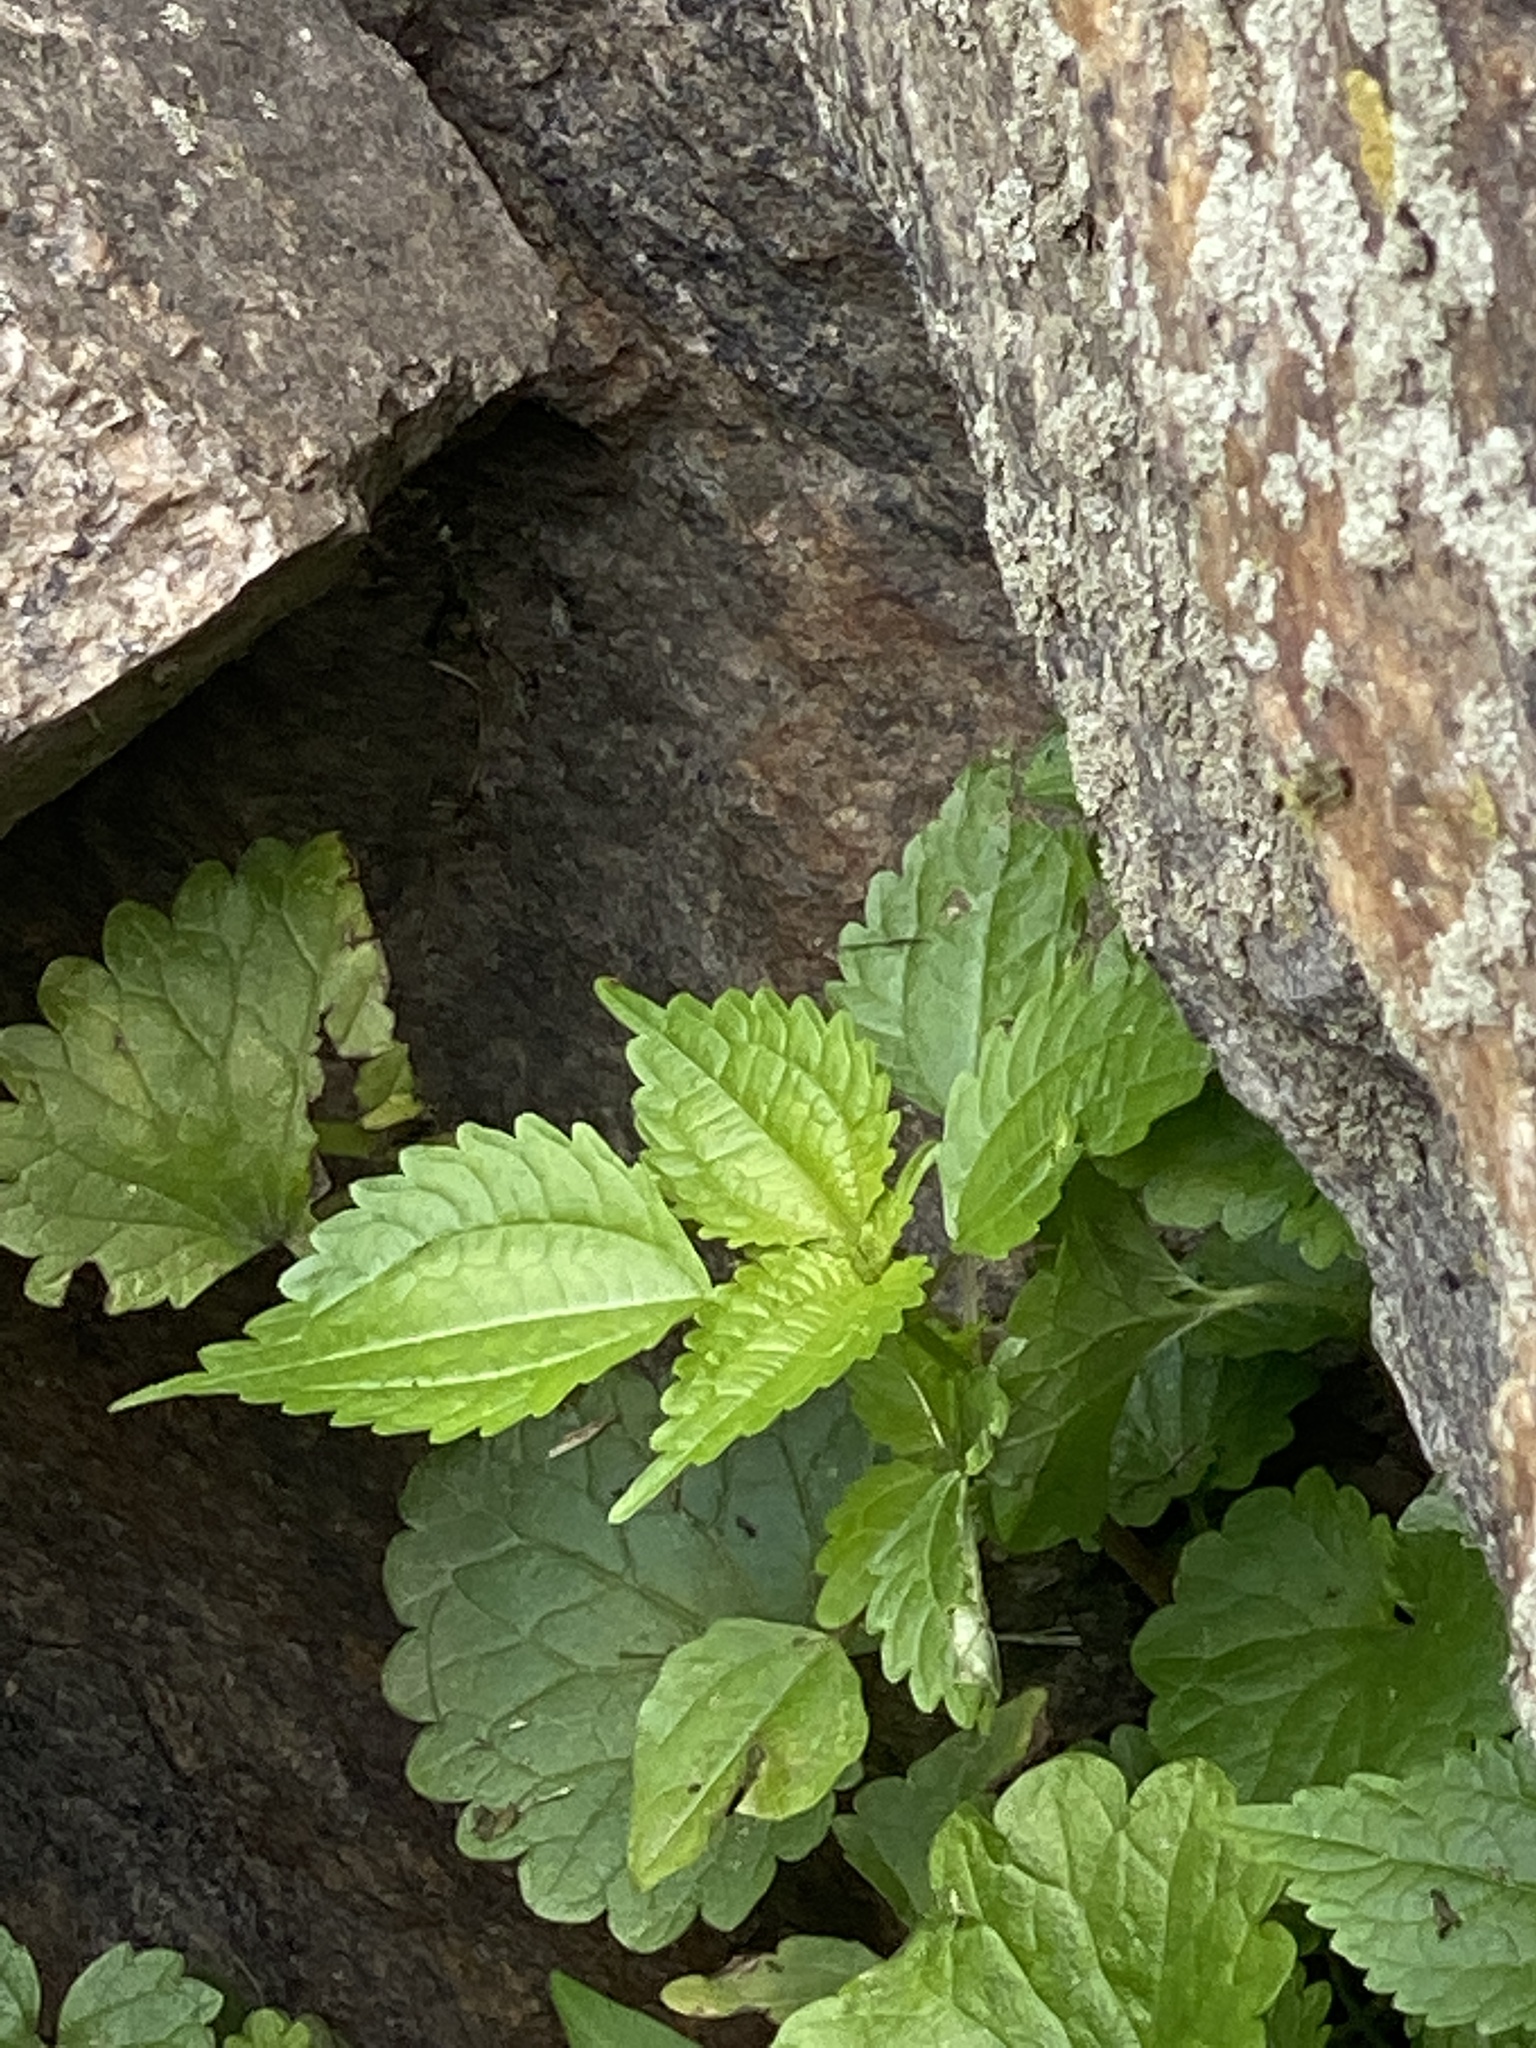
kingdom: Plantae
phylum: Tracheophyta
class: Magnoliopsida
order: Rosales
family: Urticaceae
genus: Pilea
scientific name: Pilea pumila
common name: Clearweed
